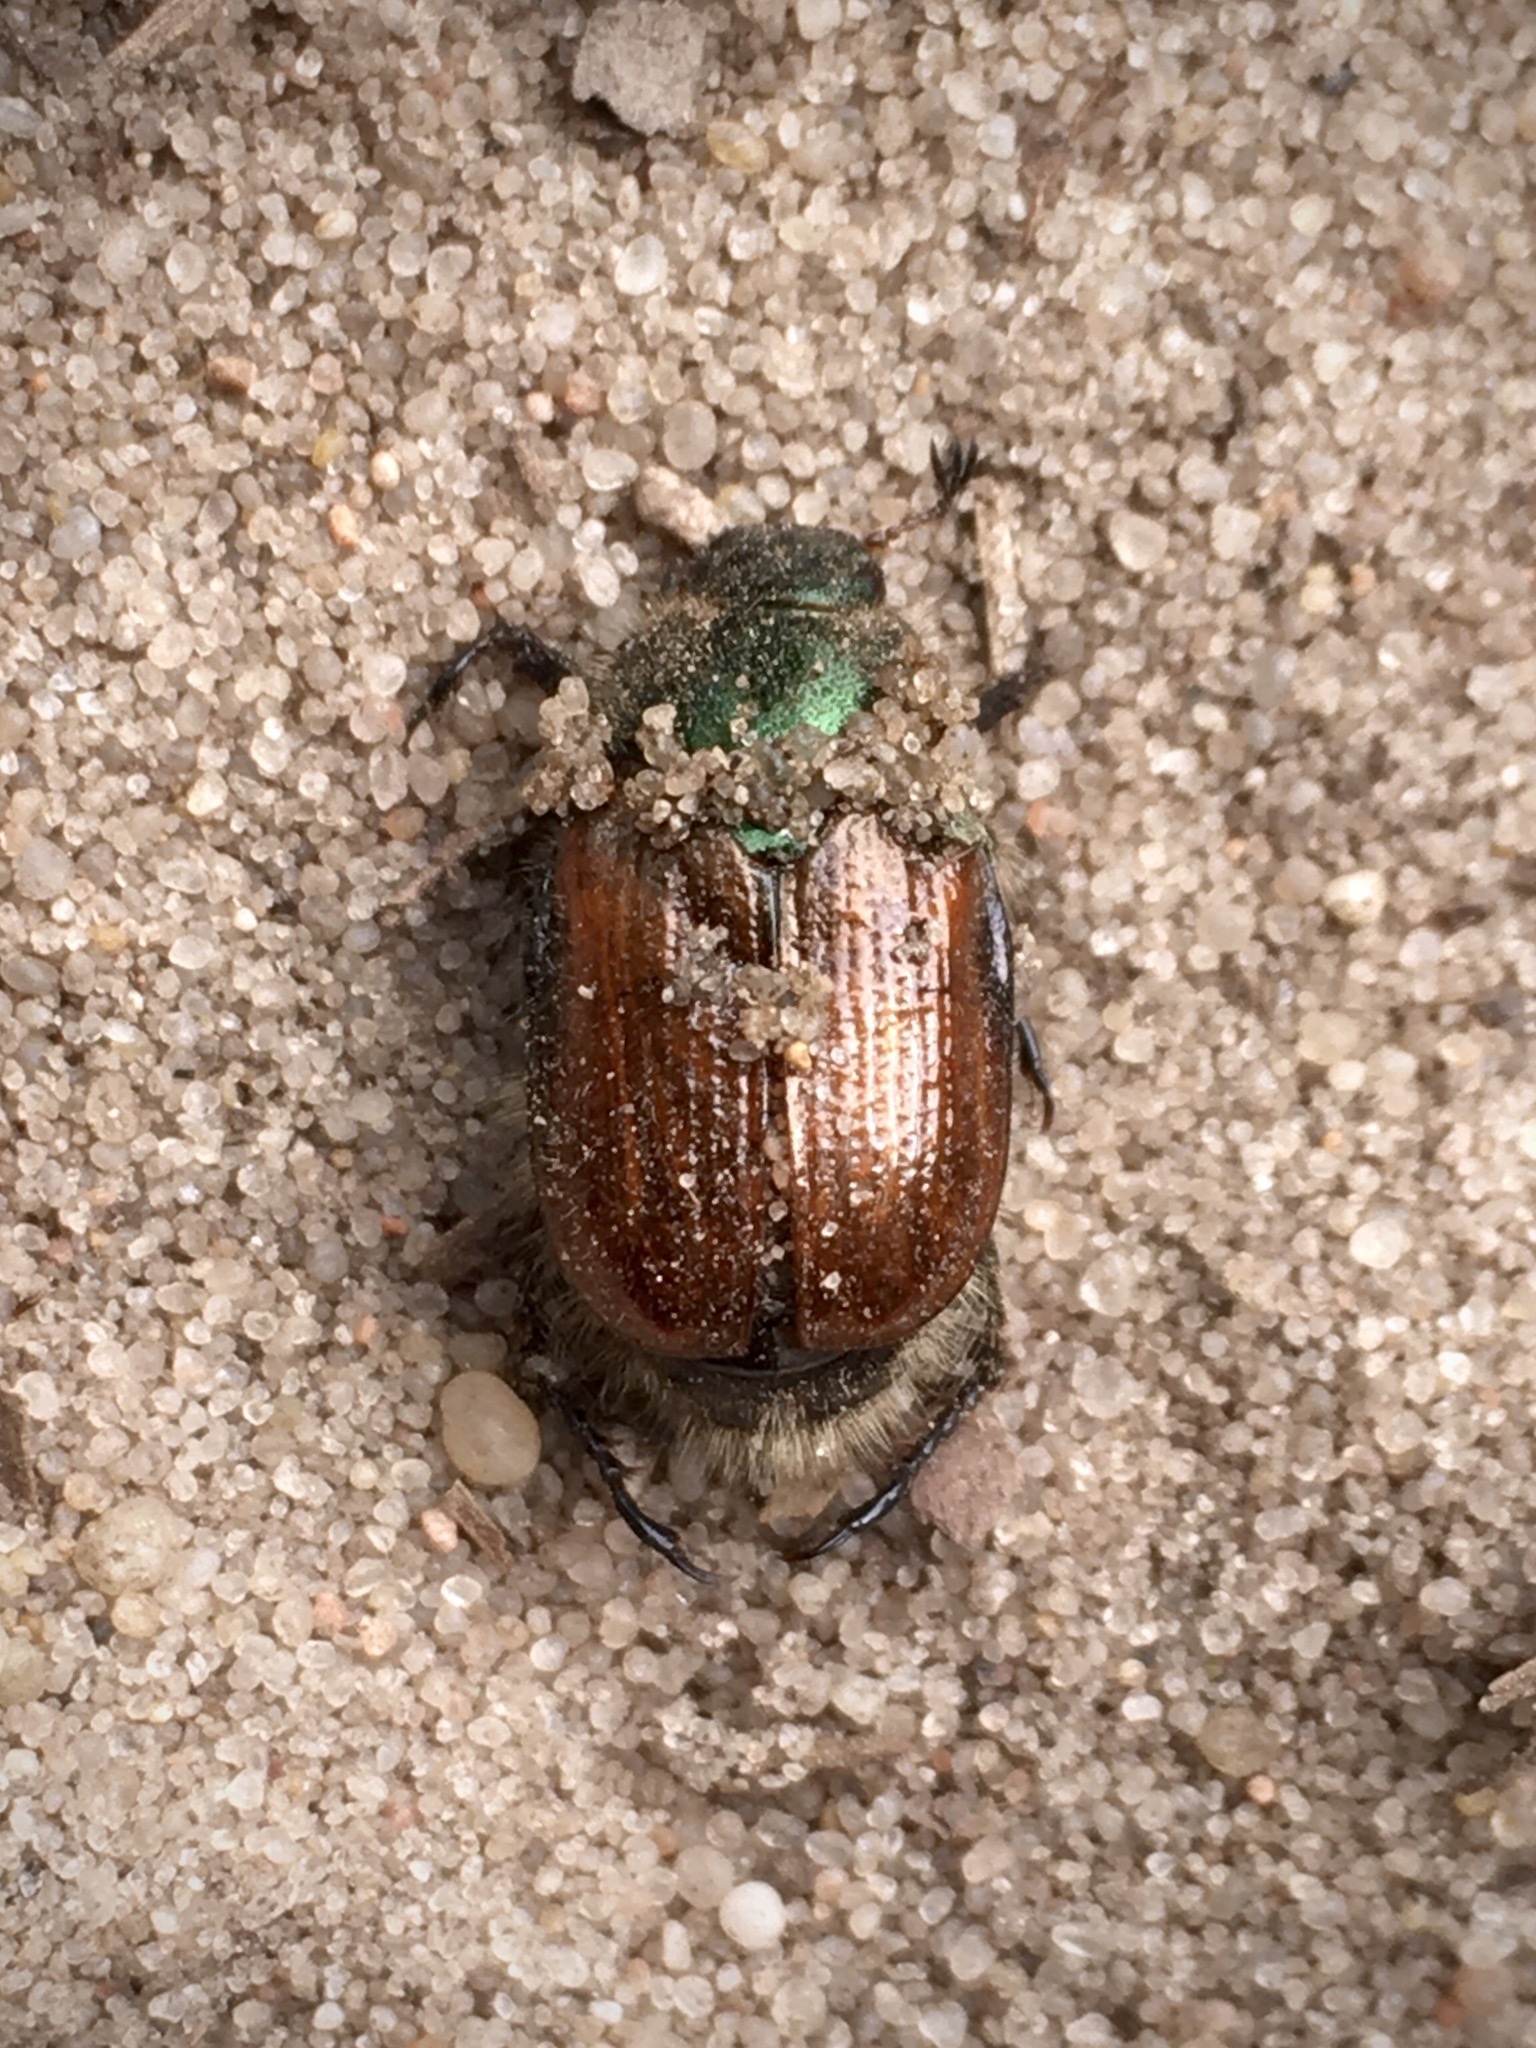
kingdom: Animalia
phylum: Arthropoda
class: Insecta
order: Coleoptera
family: Scarabaeidae
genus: Phyllopertha
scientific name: Phyllopertha horticola
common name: Garden chafer
